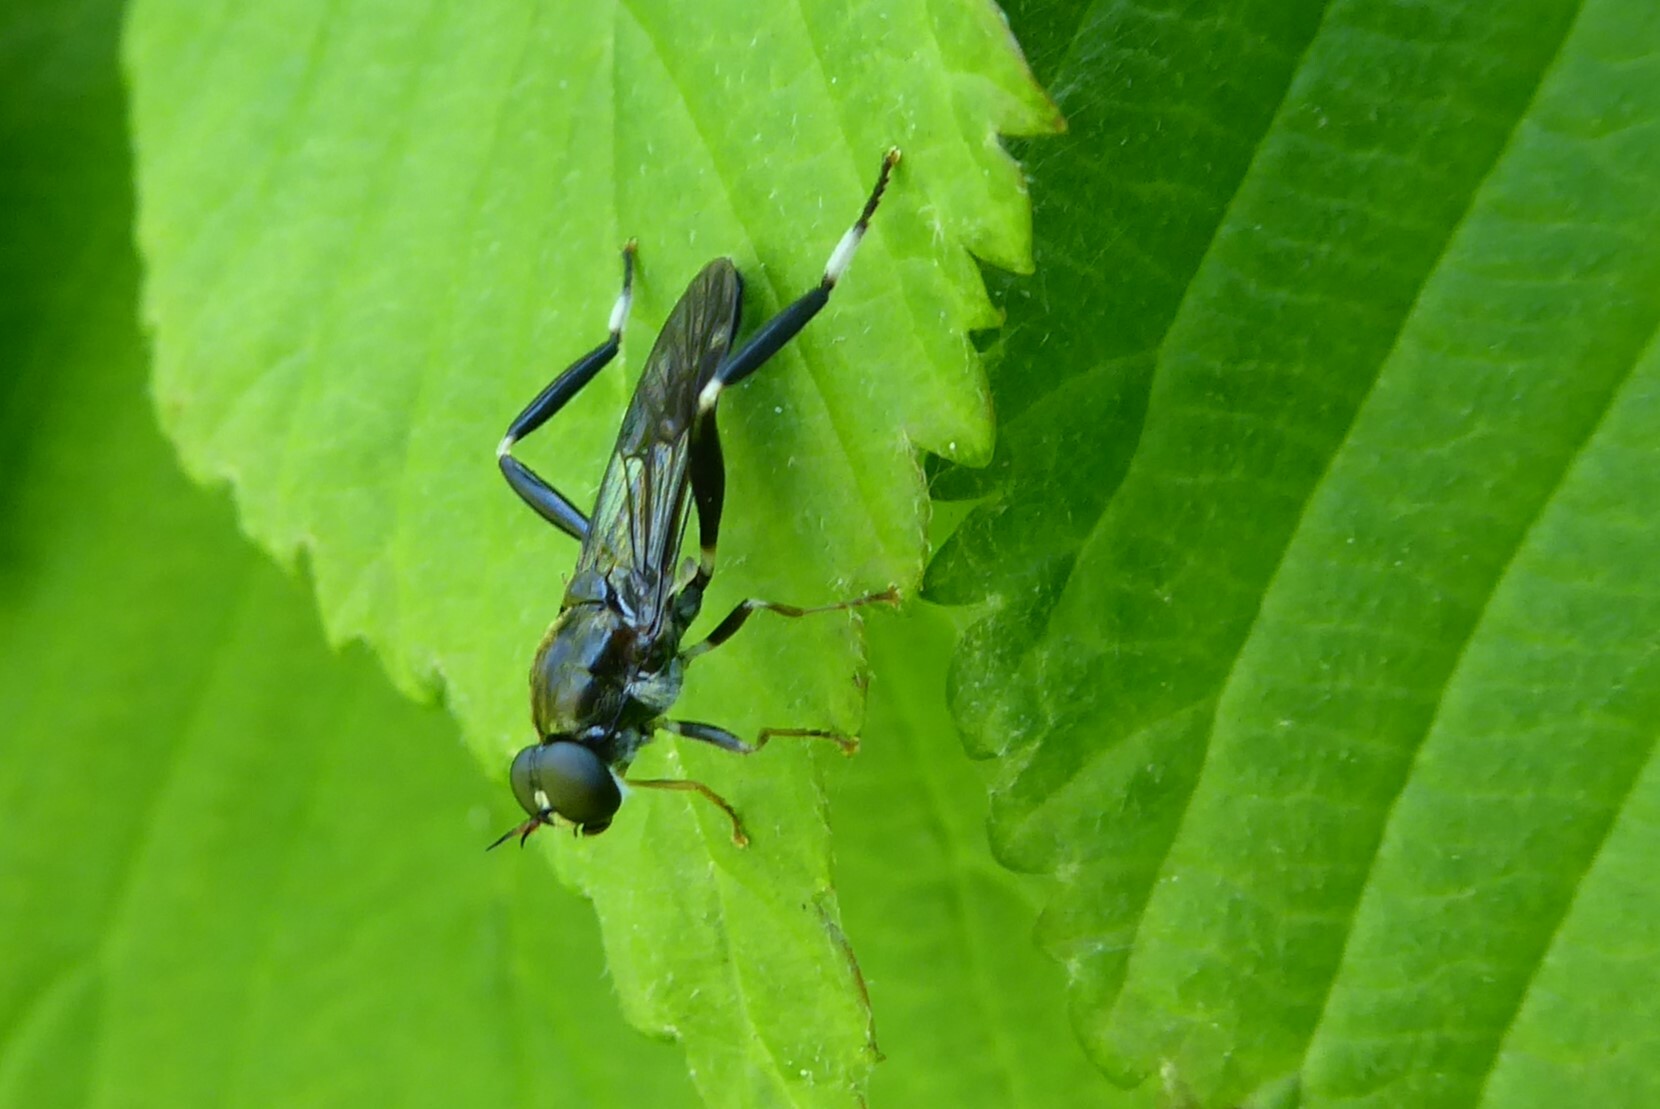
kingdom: Animalia
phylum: Arthropoda
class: Insecta
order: Diptera
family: Stratiomyidae
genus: Exaireta
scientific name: Exaireta spinigera
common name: Blue soldier fly
